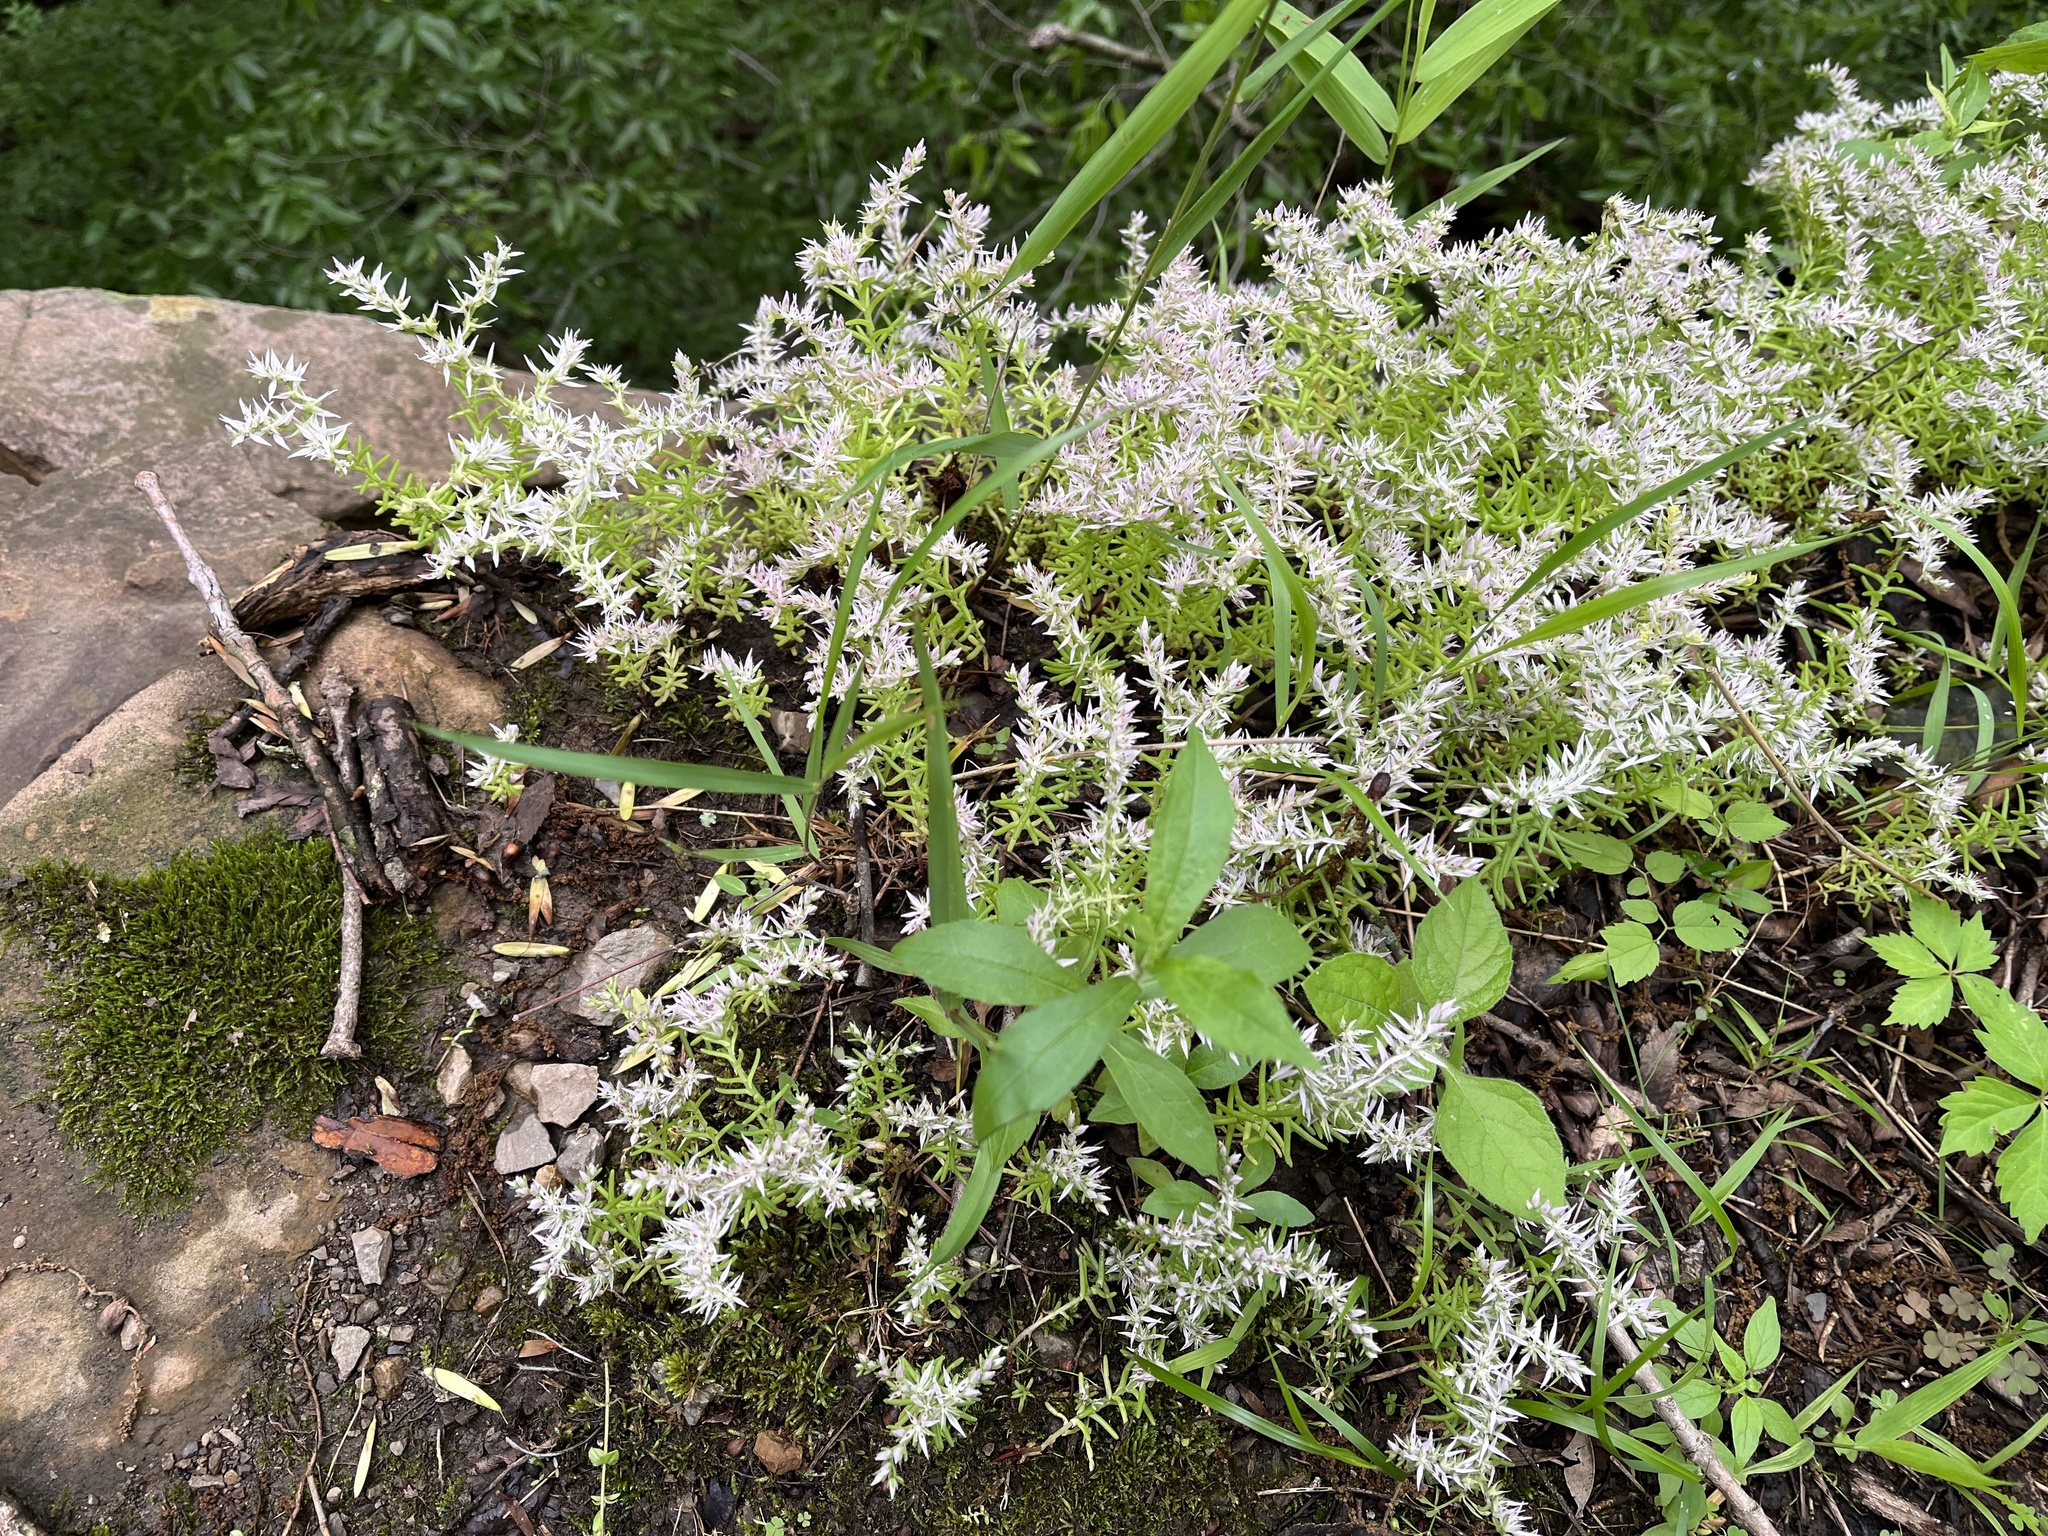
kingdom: Plantae
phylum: Tracheophyta
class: Magnoliopsida
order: Saxifragales
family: Crassulaceae
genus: Sedum
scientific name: Sedum pulchellum
